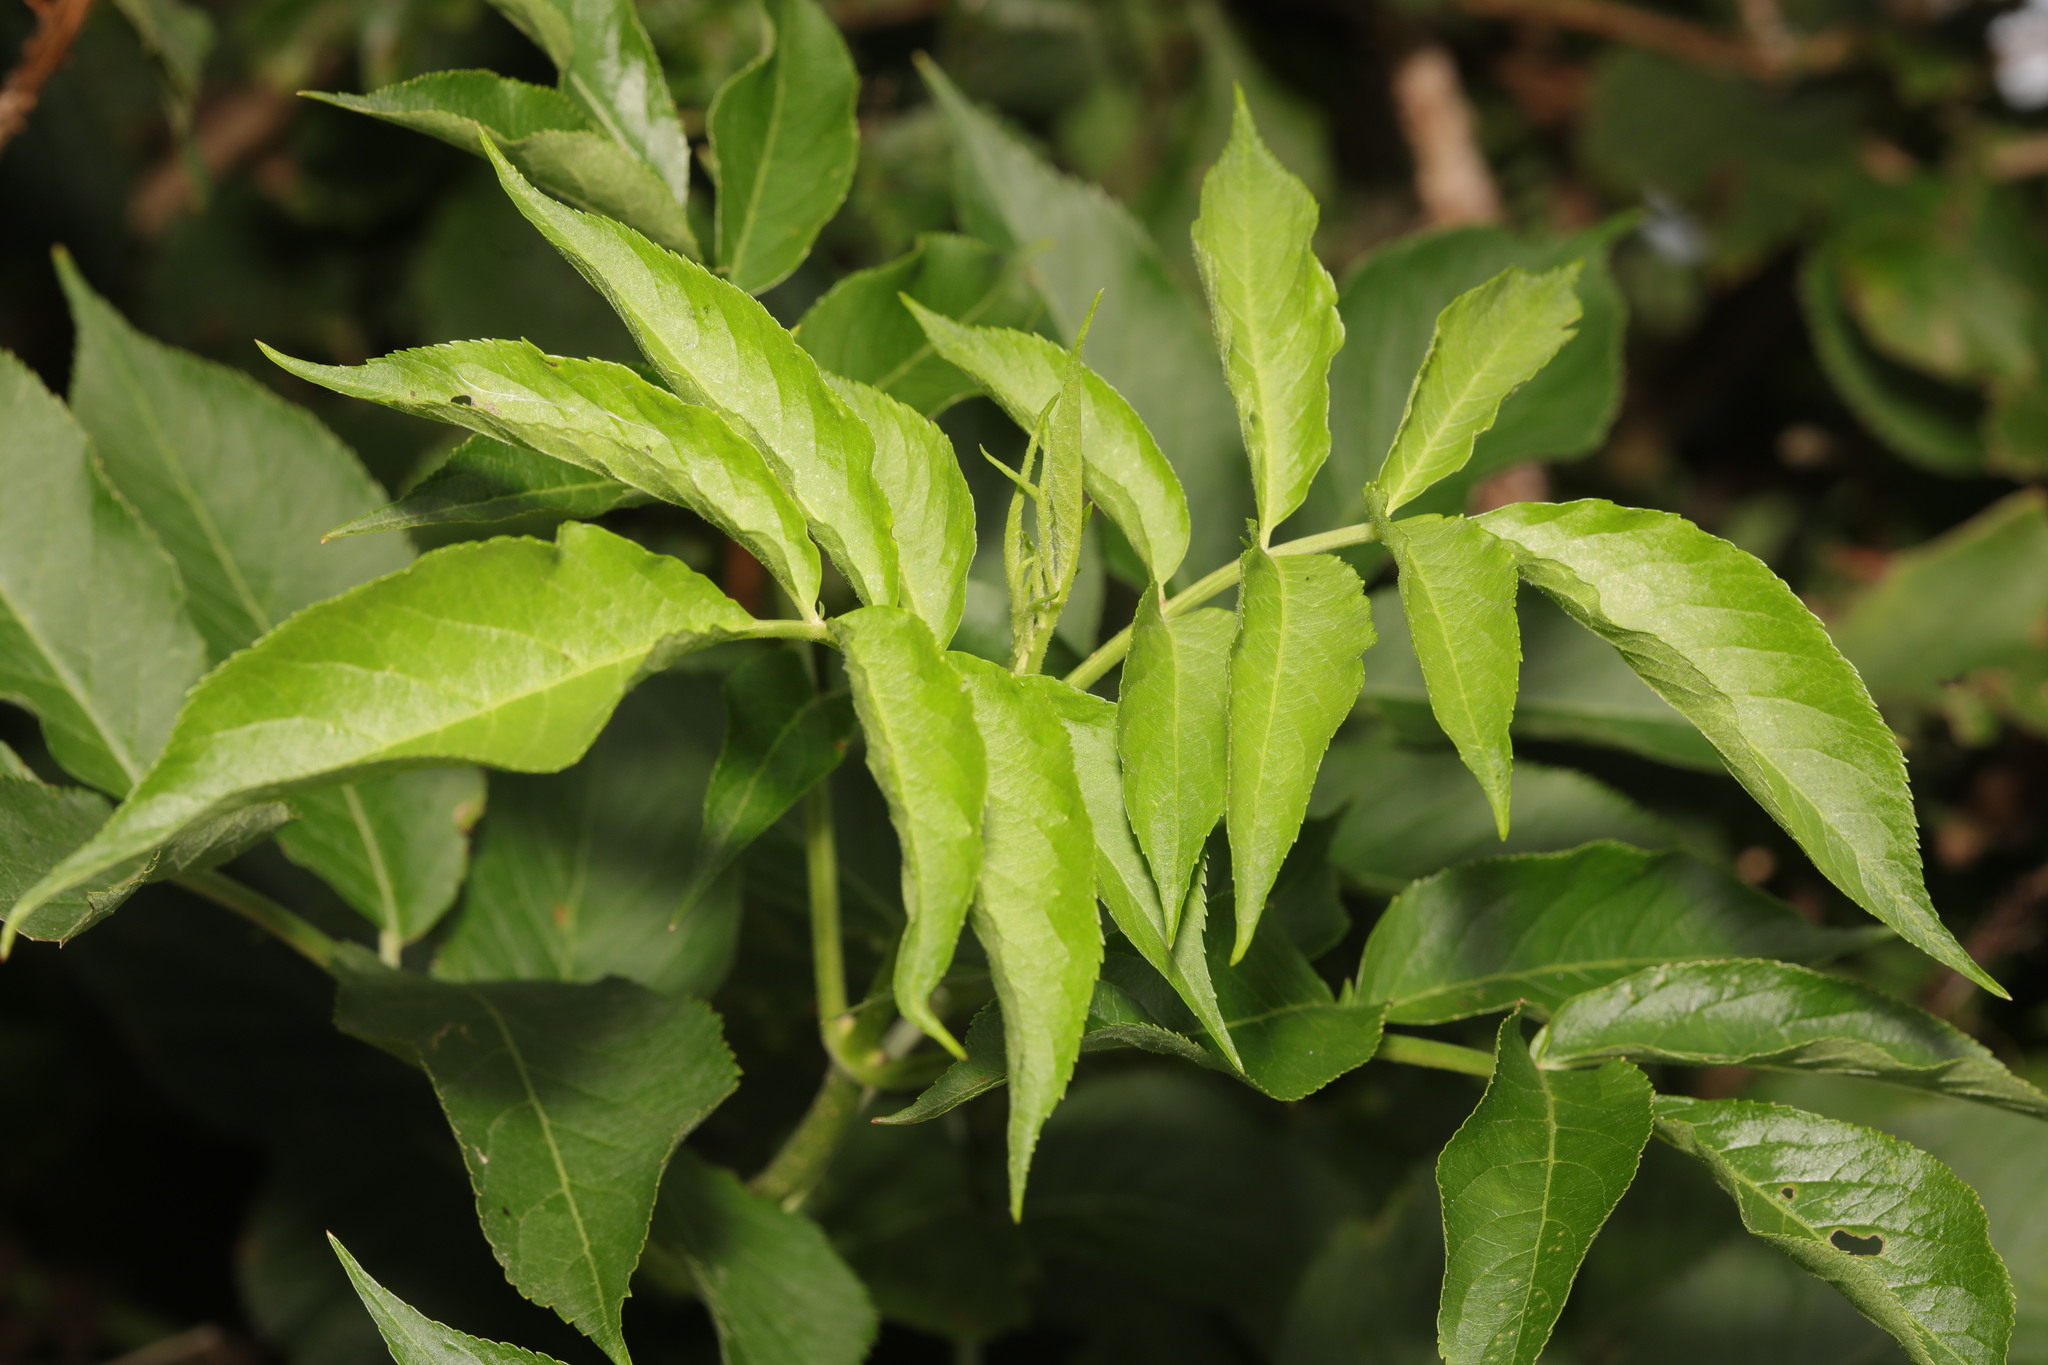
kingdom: Plantae
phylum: Tracheophyta
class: Magnoliopsida
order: Dipsacales
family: Viburnaceae
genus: Sambucus
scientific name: Sambucus nigra
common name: Elder
